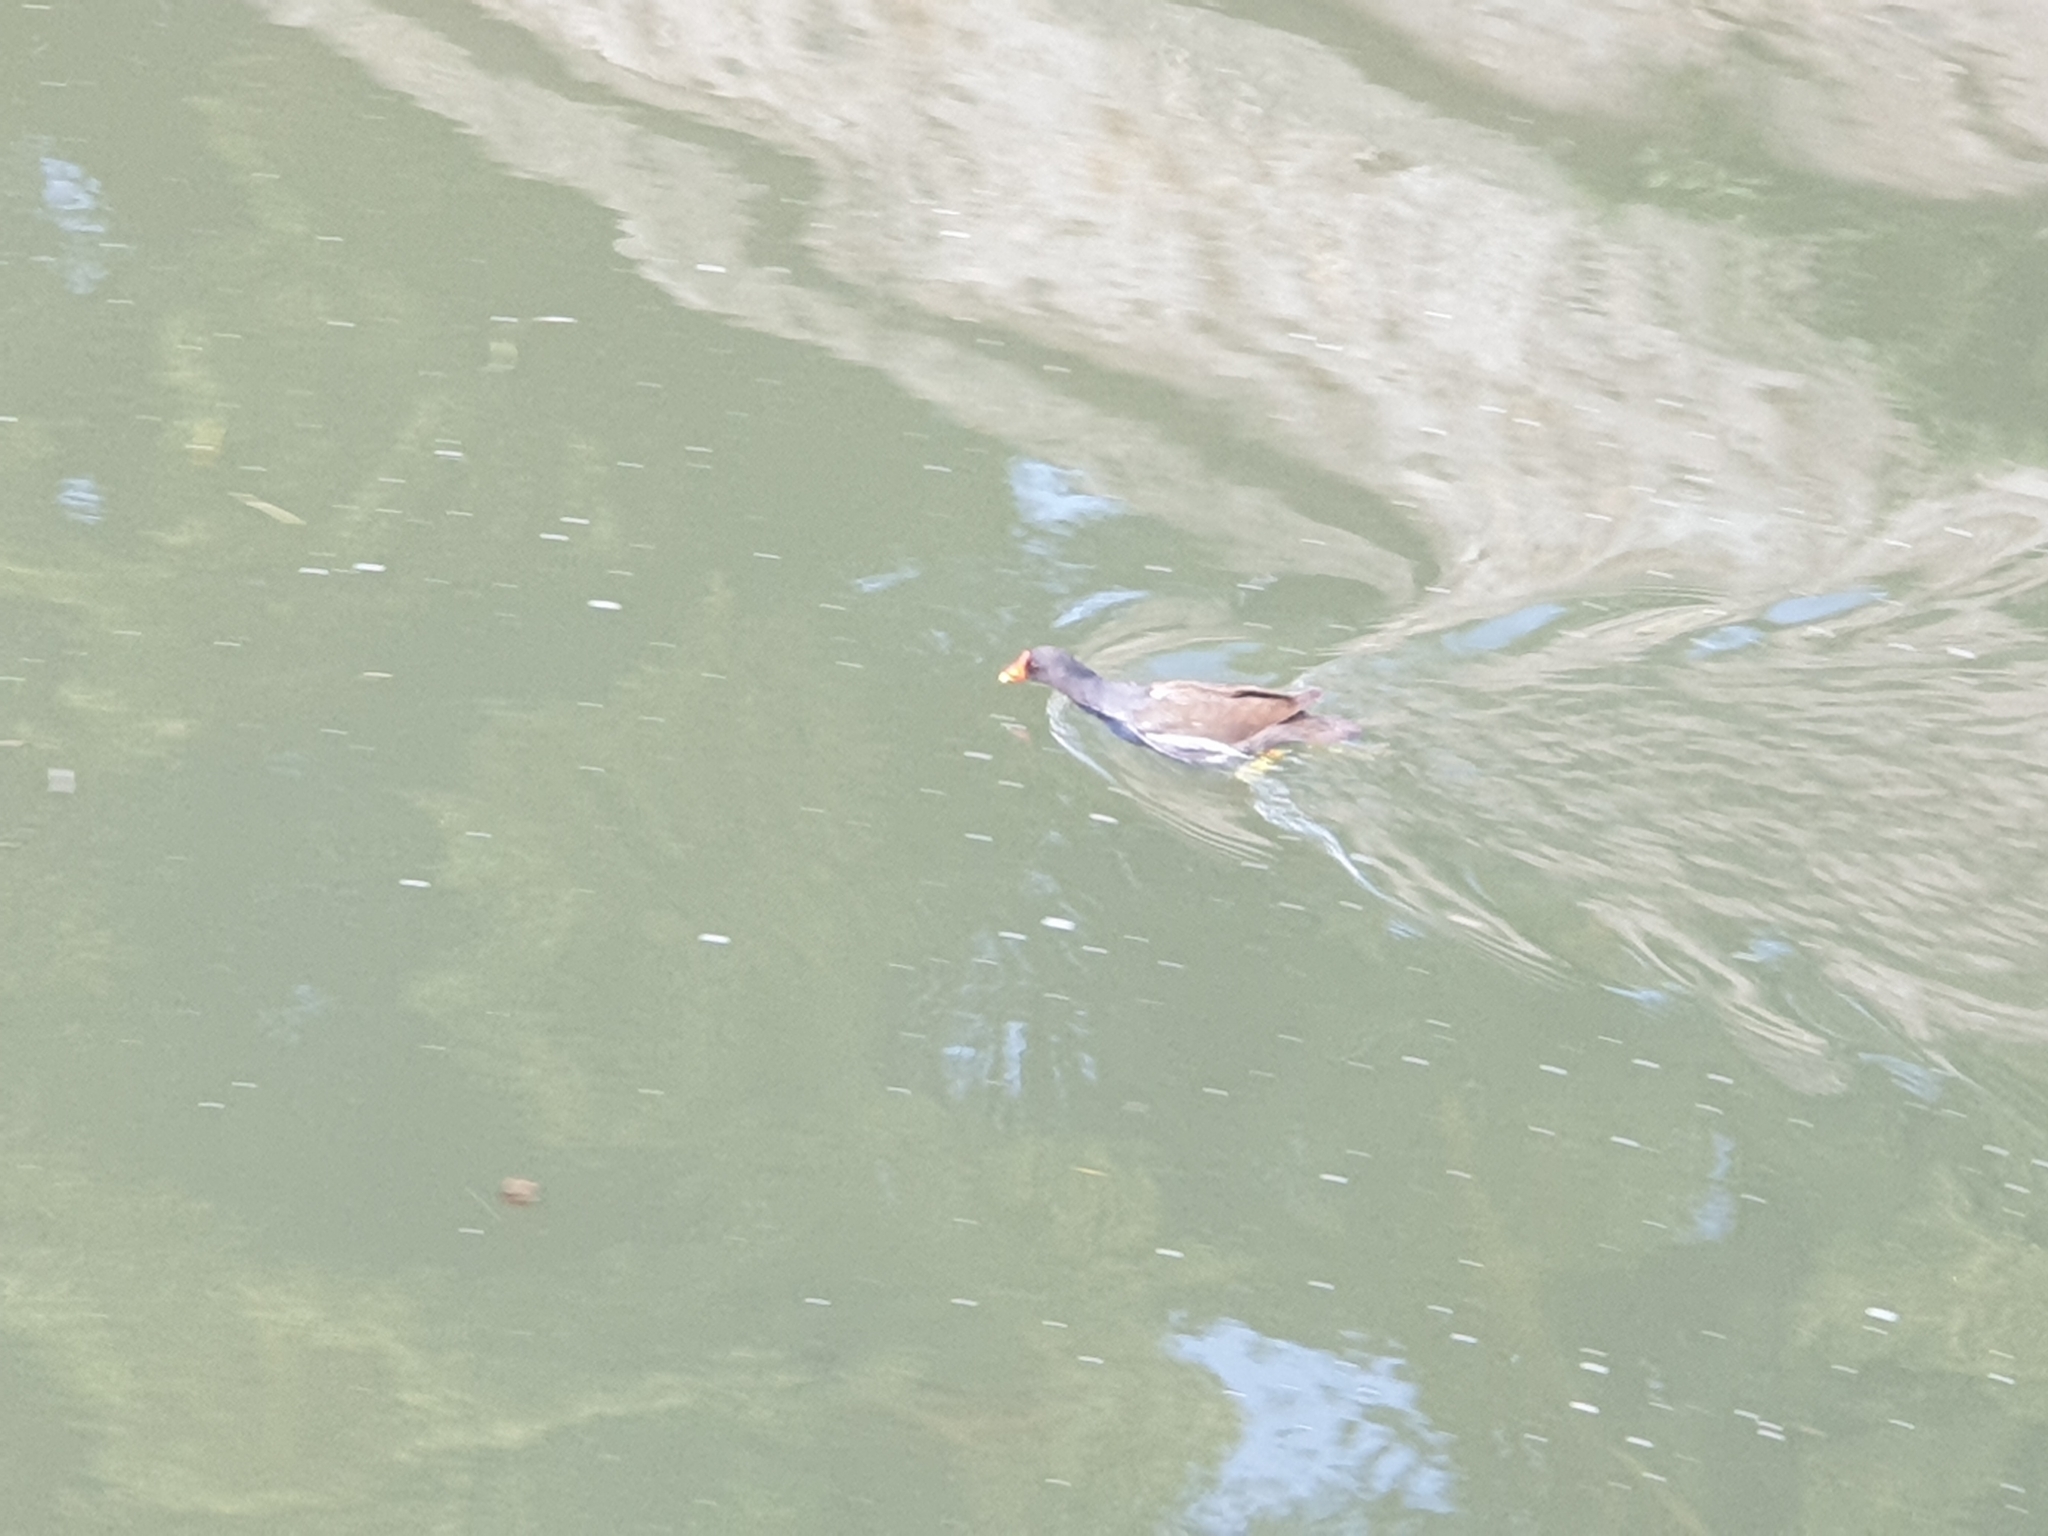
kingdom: Animalia
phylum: Chordata
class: Aves
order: Gruiformes
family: Rallidae
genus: Gallinula
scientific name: Gallinula chloropus
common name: Common moorhen
